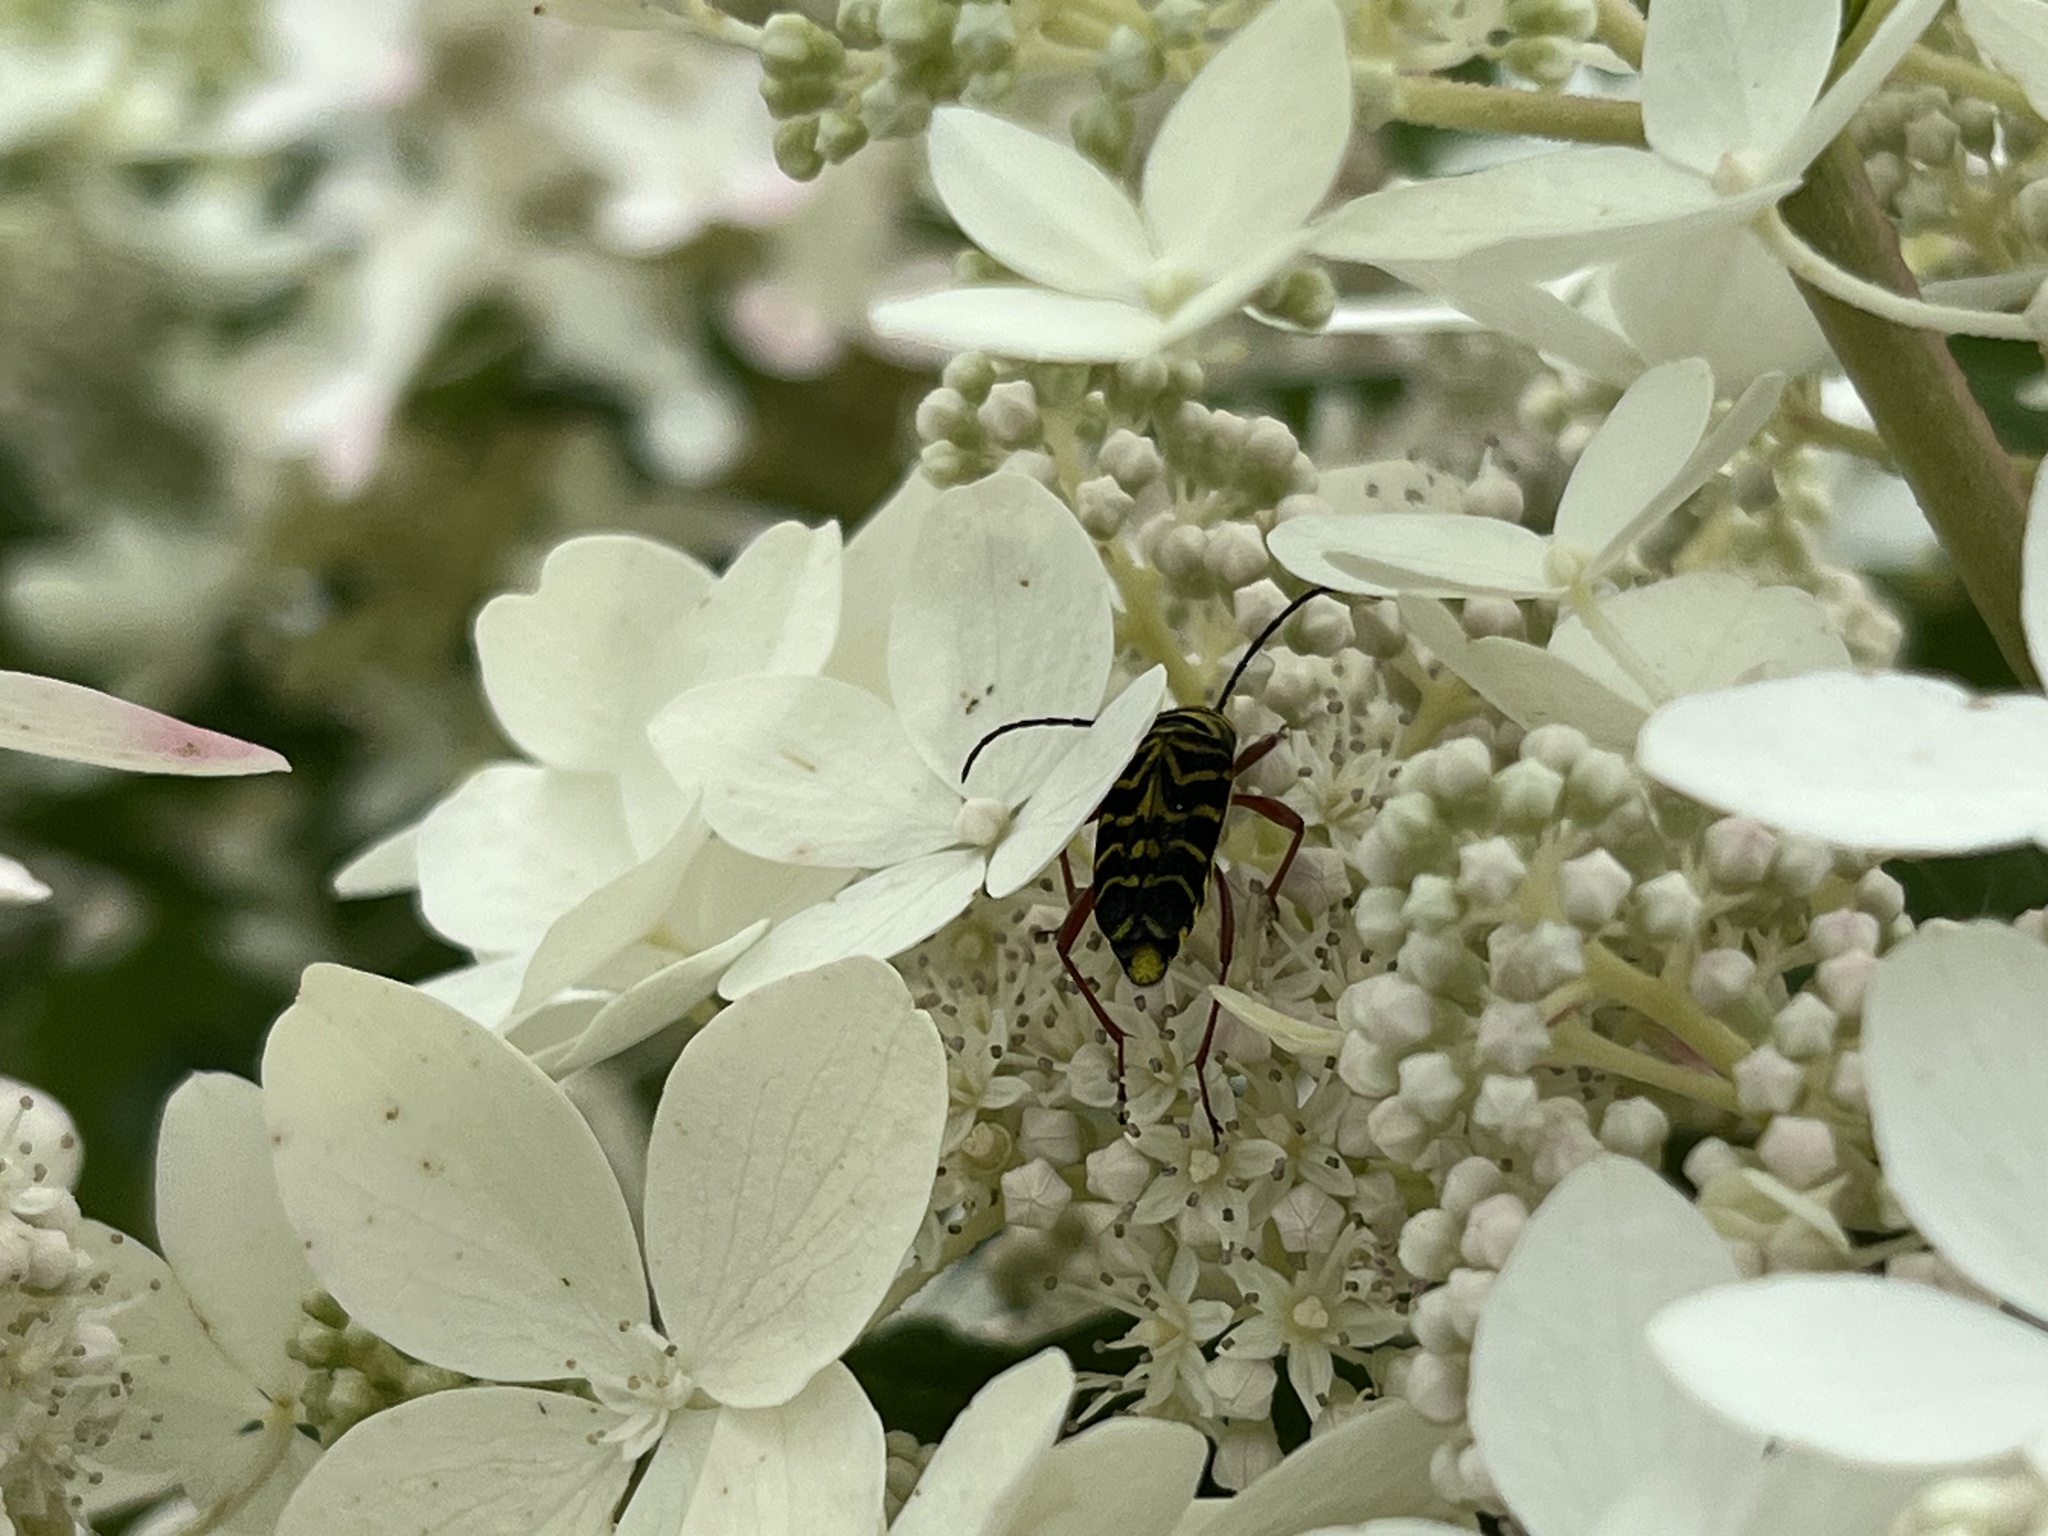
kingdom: Animalia
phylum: Arthropoda
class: Insecta
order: Coleoptera
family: Cerambycidae
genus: Megacyllene
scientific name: Megacyllene robiniae
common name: Locust borer
